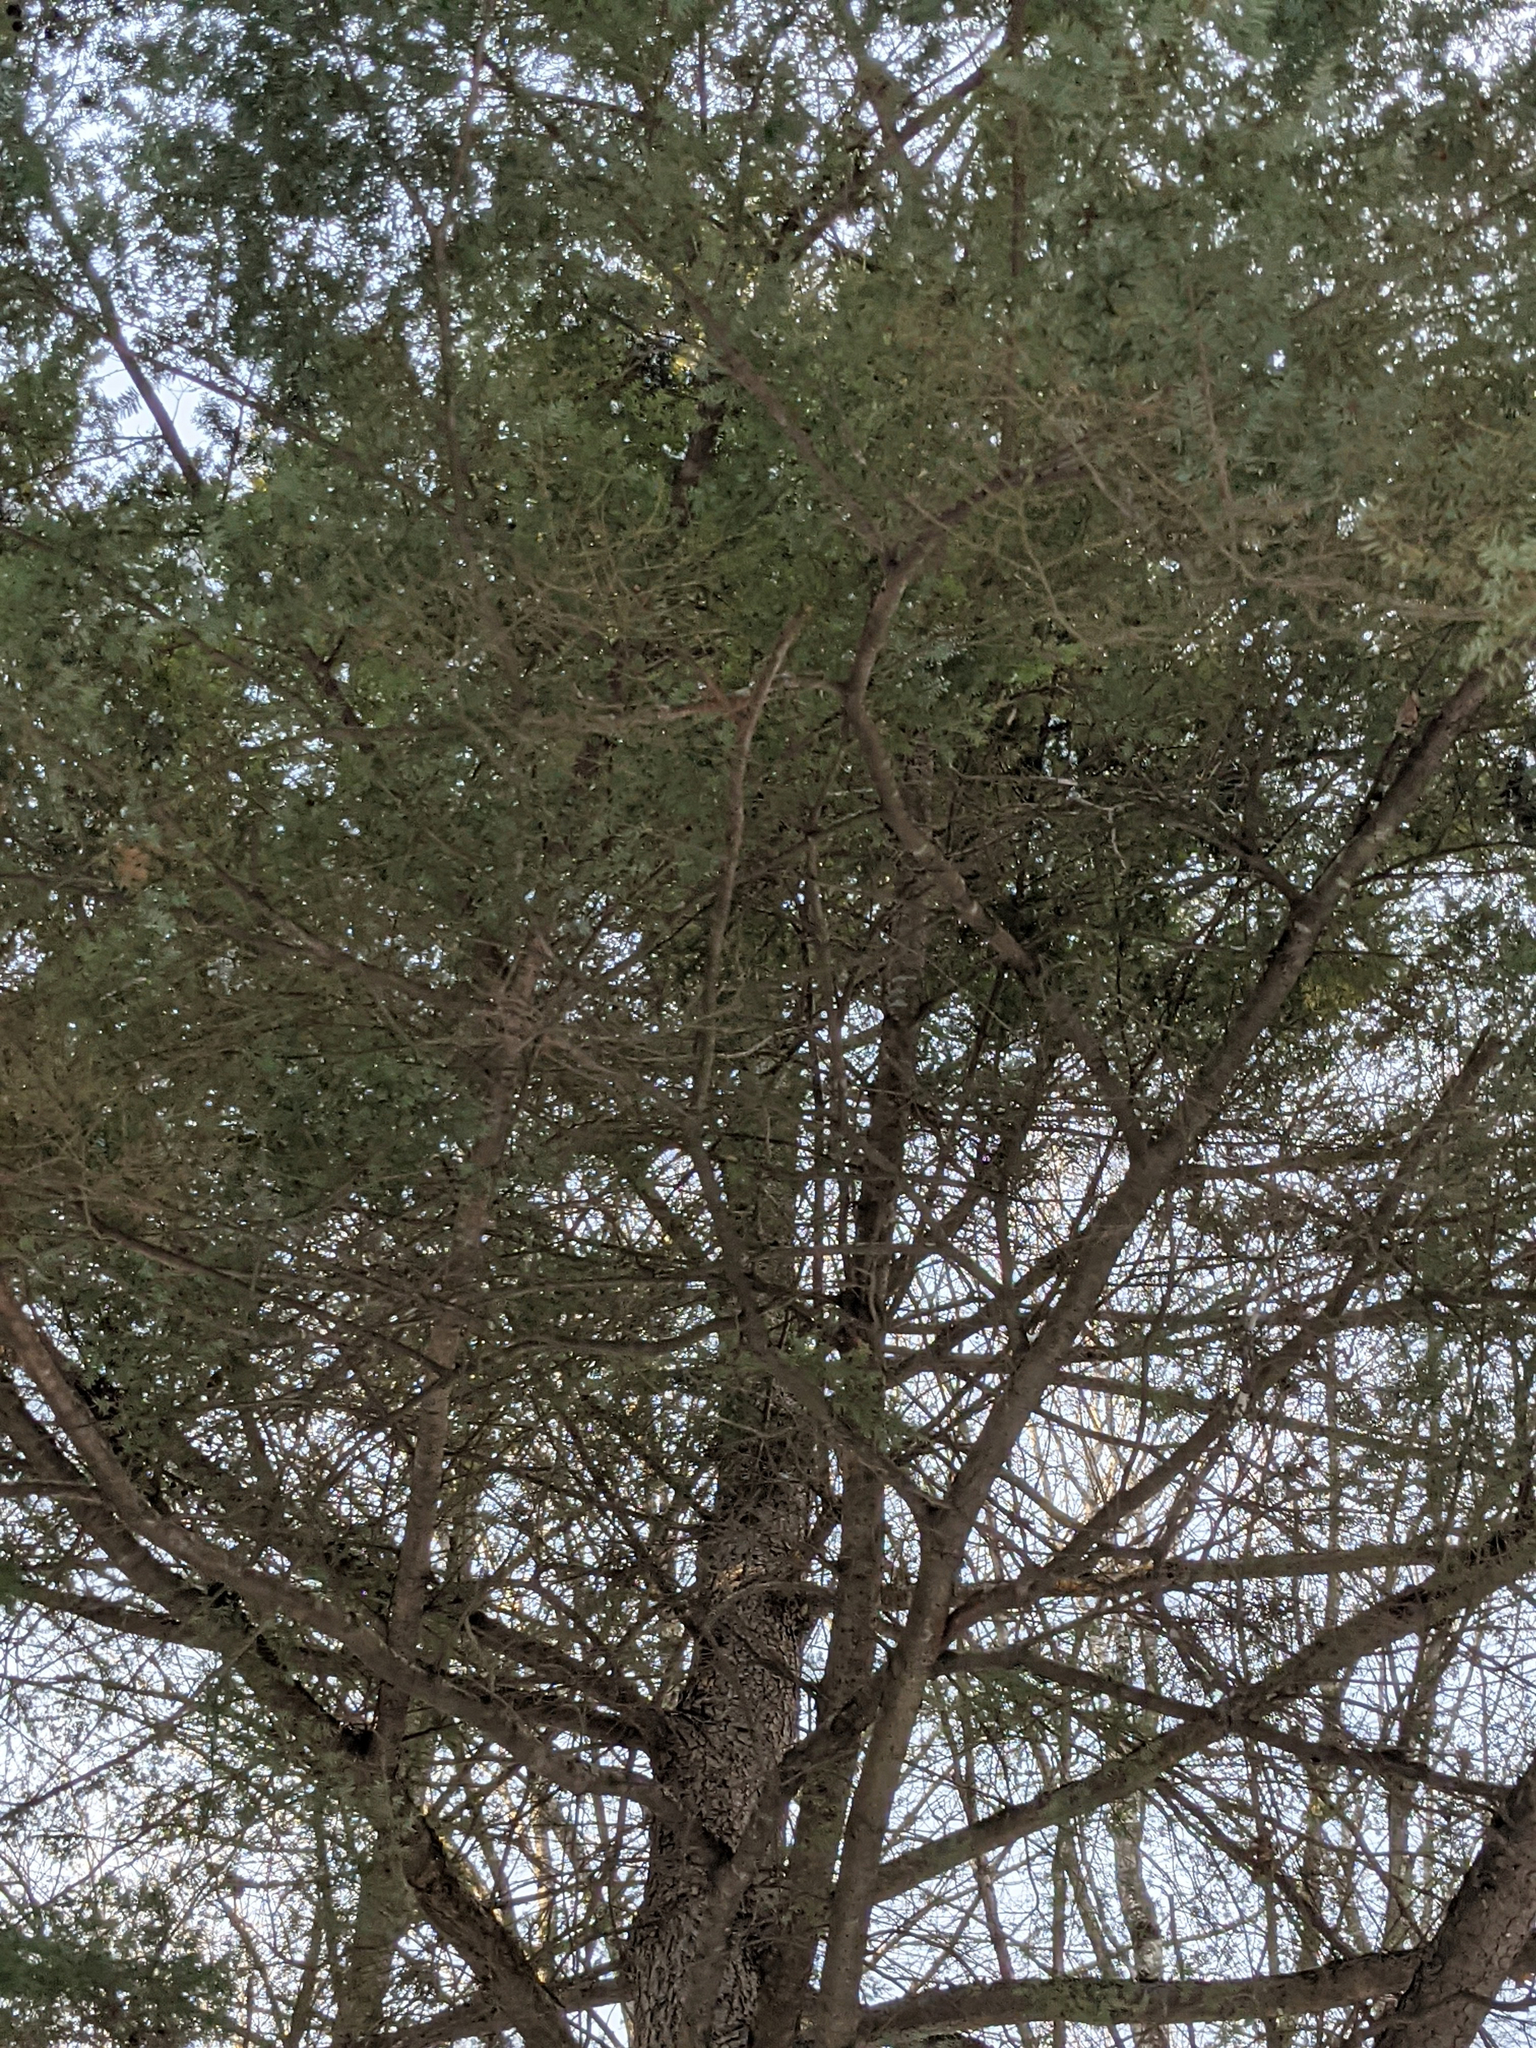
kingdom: Plantae
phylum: Tracheophyta
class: Pinopsida
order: Pinales
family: Pinaceae
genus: Tsuga
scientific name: Tsuga canadensis
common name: Eastern hemlock
